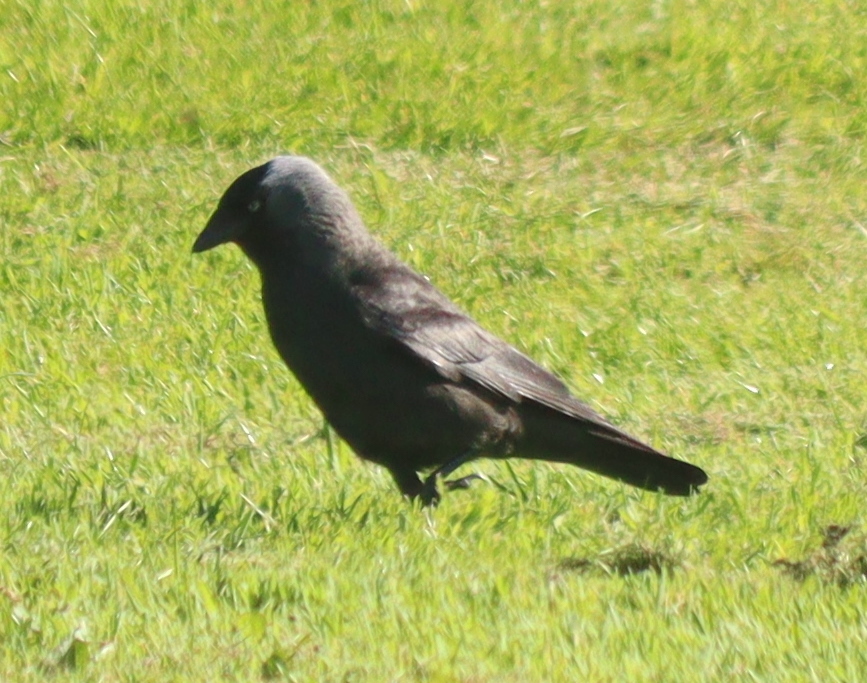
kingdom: Animalia
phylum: Chordata
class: Aves
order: Passeriformes
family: Corvidae
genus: Coloeus
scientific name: Coloeus monedula
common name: Western jackdaw
